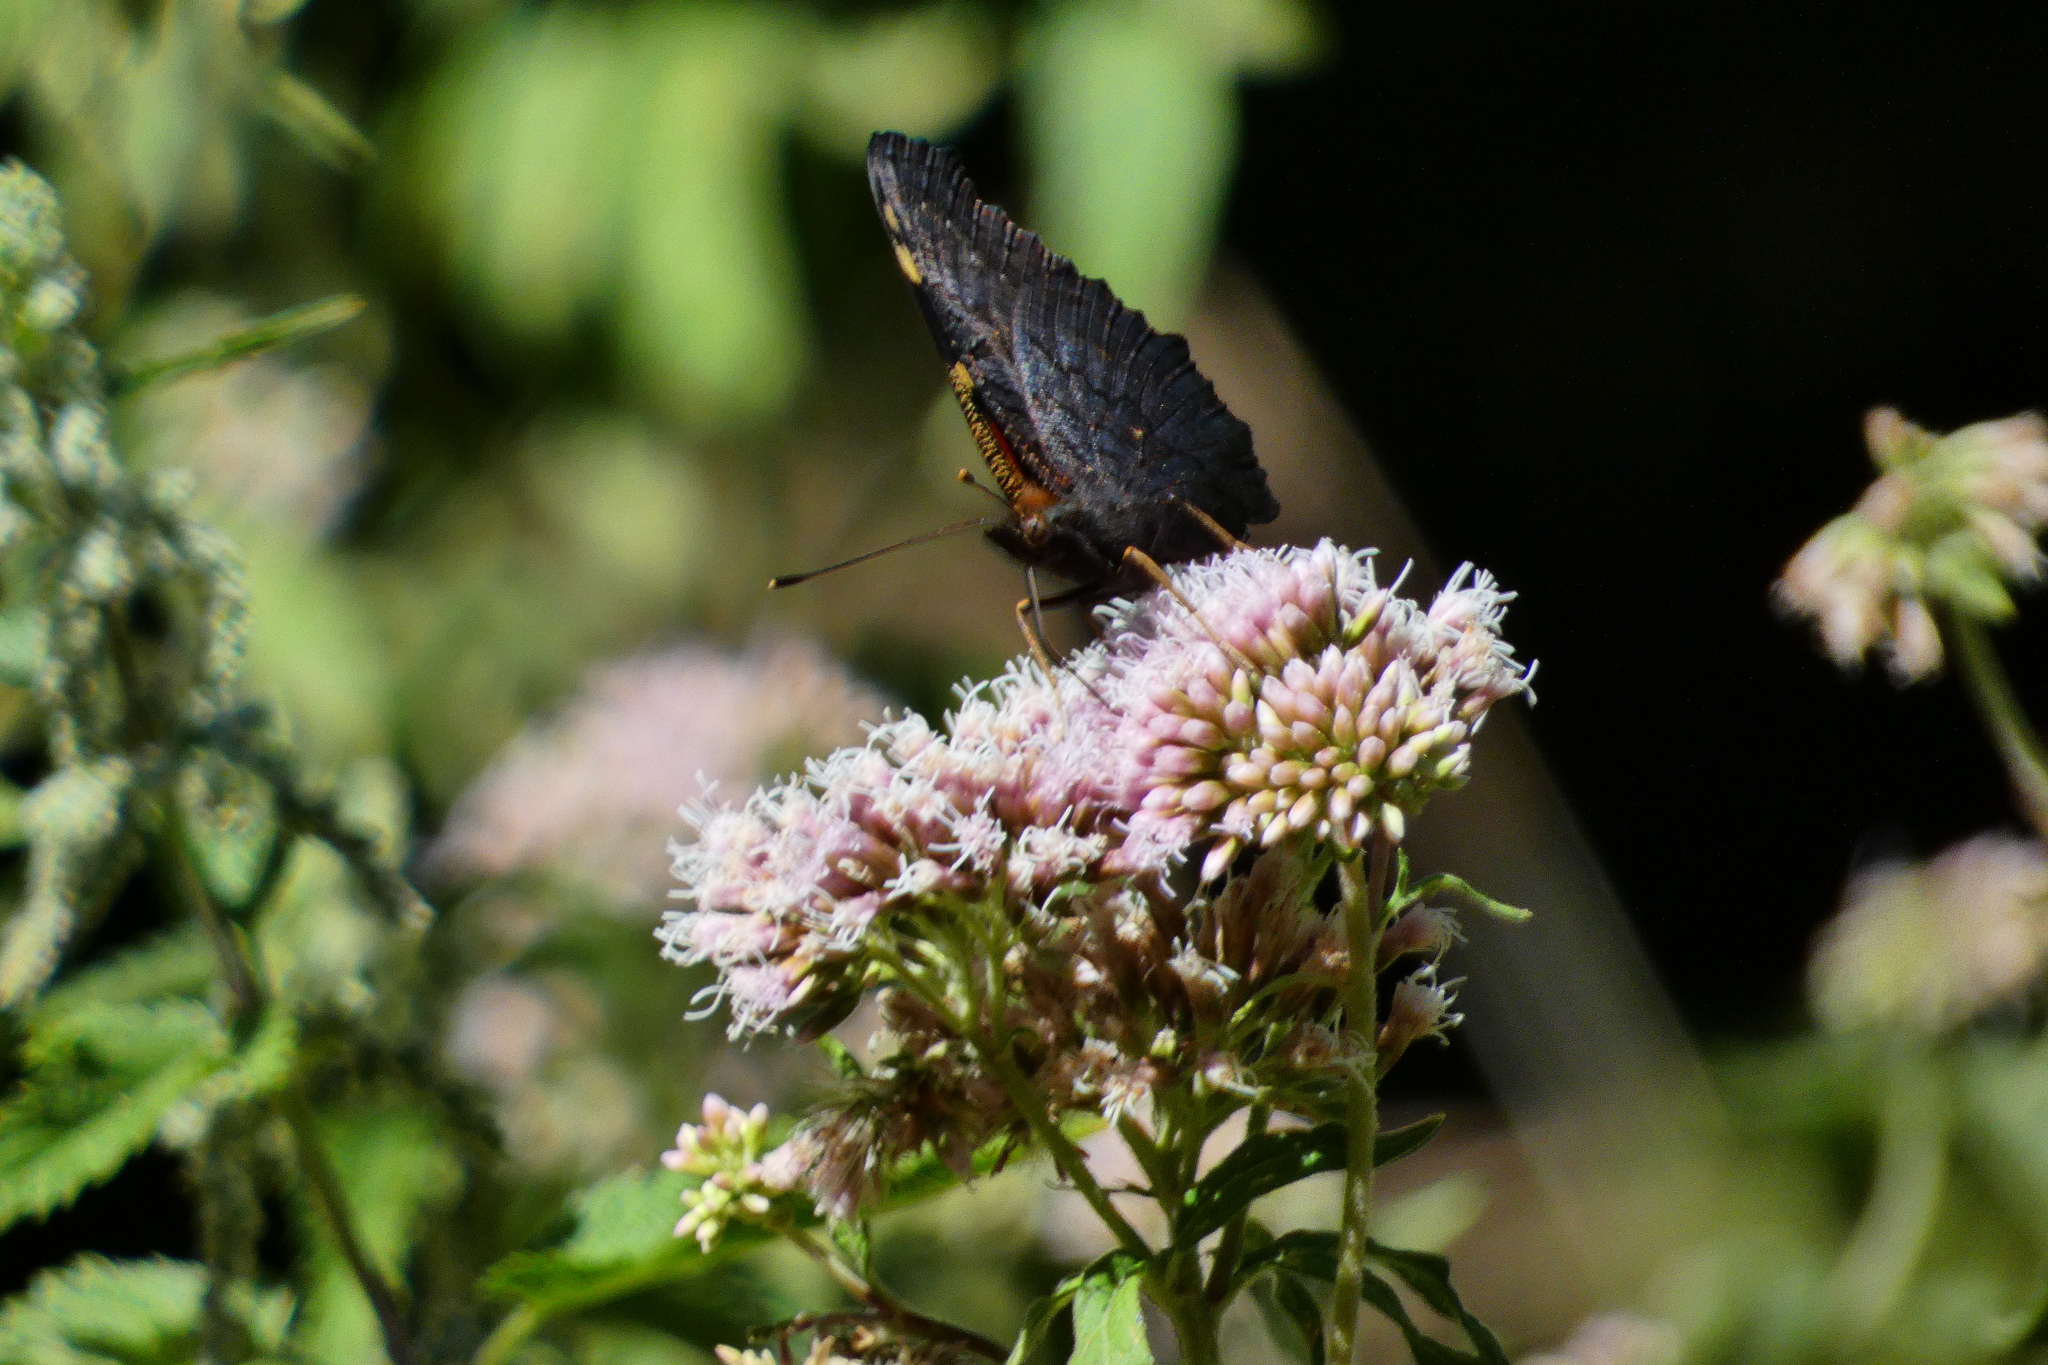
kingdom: Animalia
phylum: Arthropoda
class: Insecta
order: Lepidoptera
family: Nymphalidae
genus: Aglais
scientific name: Aglais io
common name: Peacock
